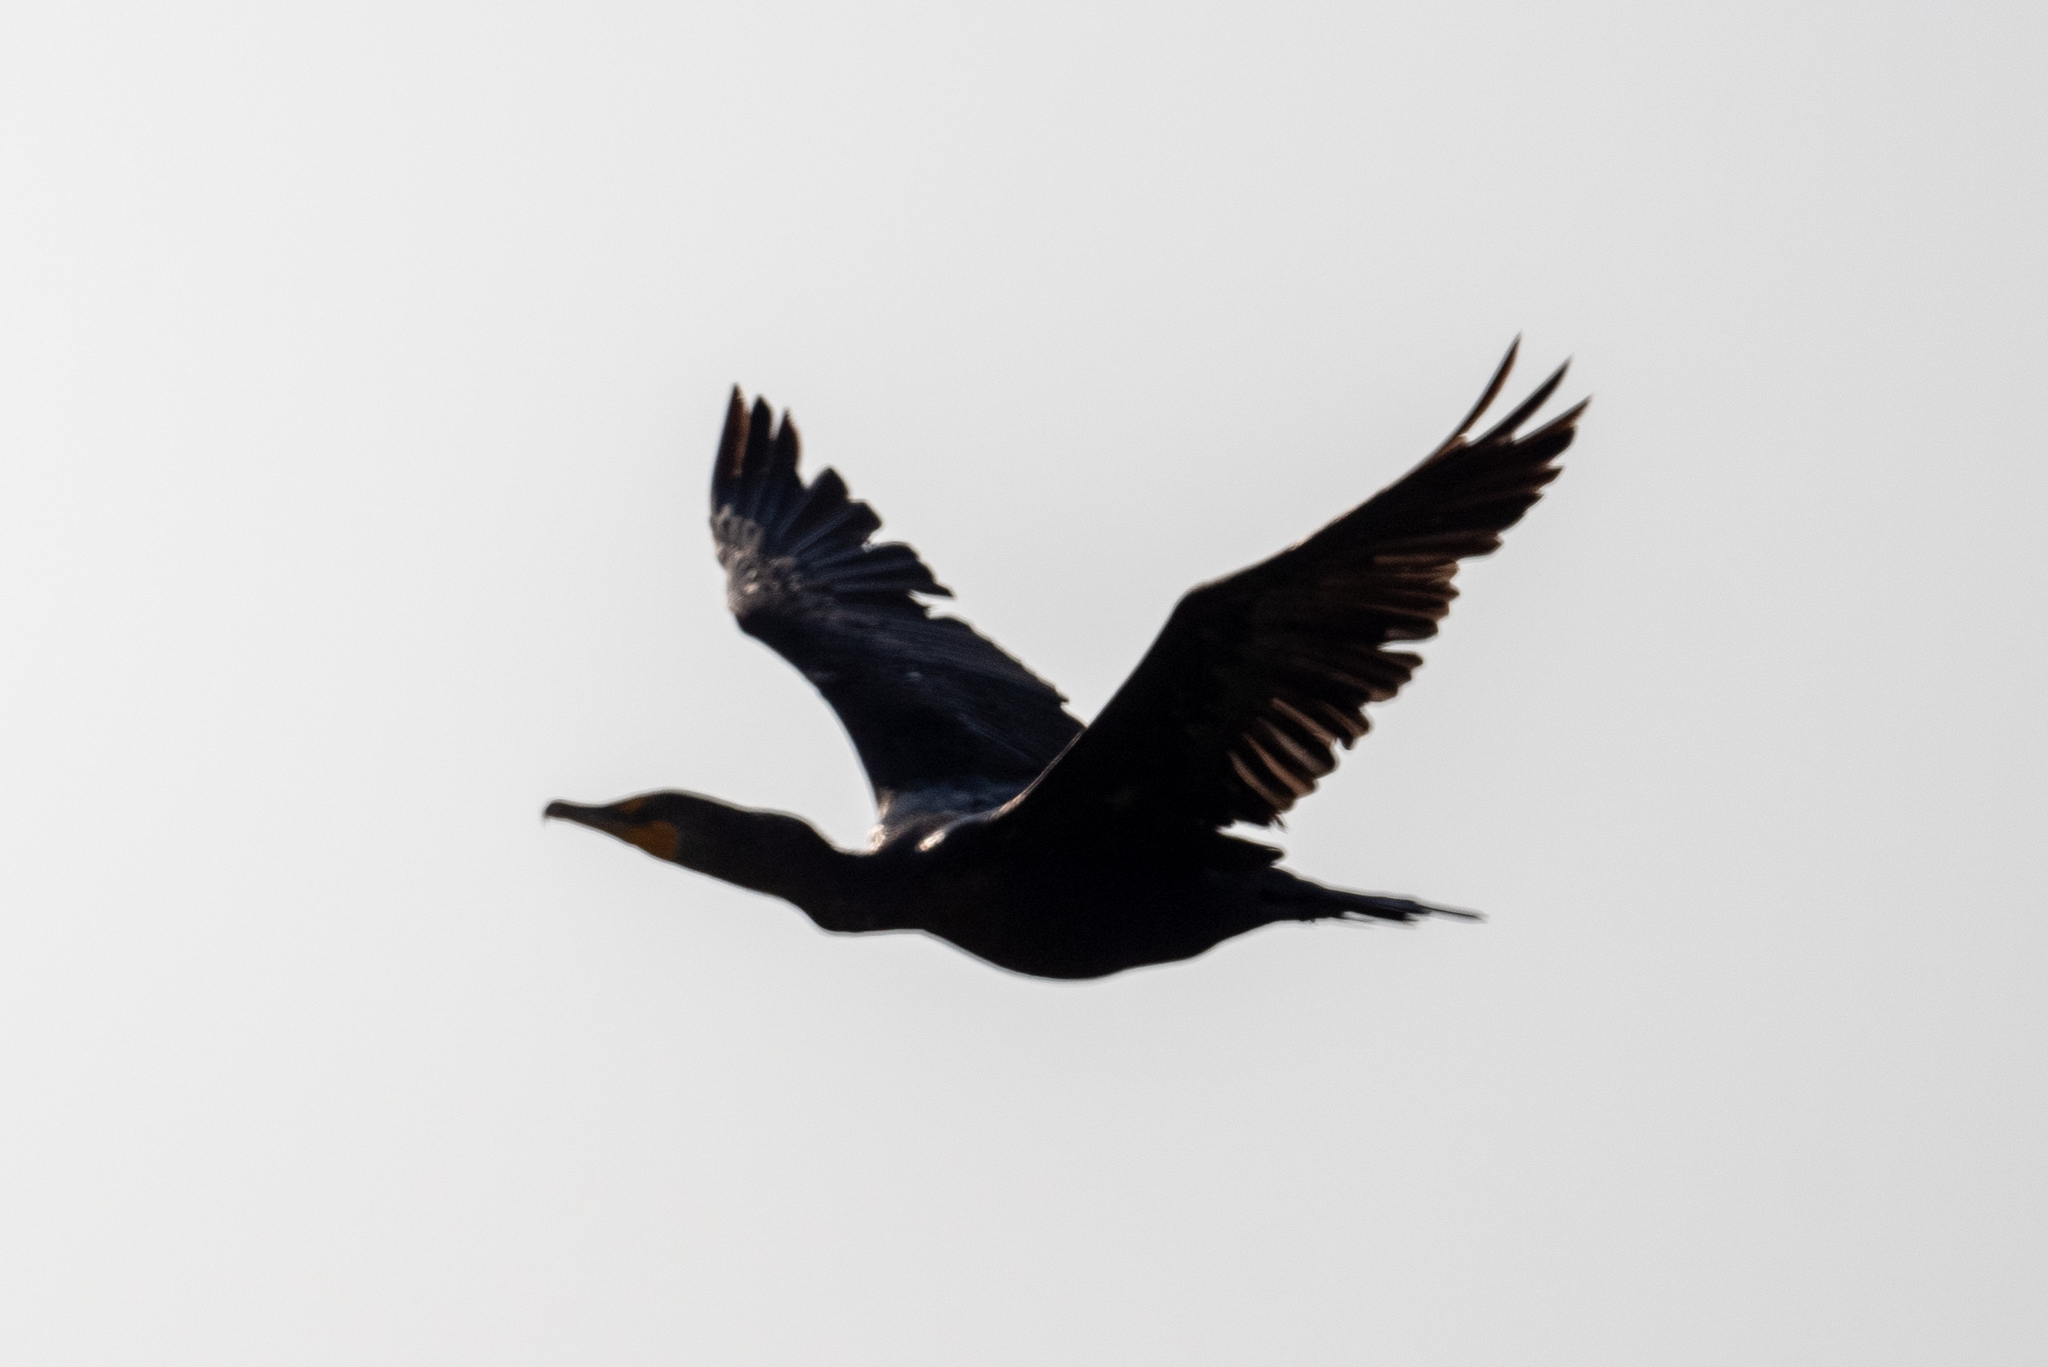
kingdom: Animalia
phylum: Chordata
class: Aves
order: Suliformes
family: Phalacrocoracidae
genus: Phalacrocorax
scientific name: Phalacrocorax auritus
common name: Double-crested cormorant
